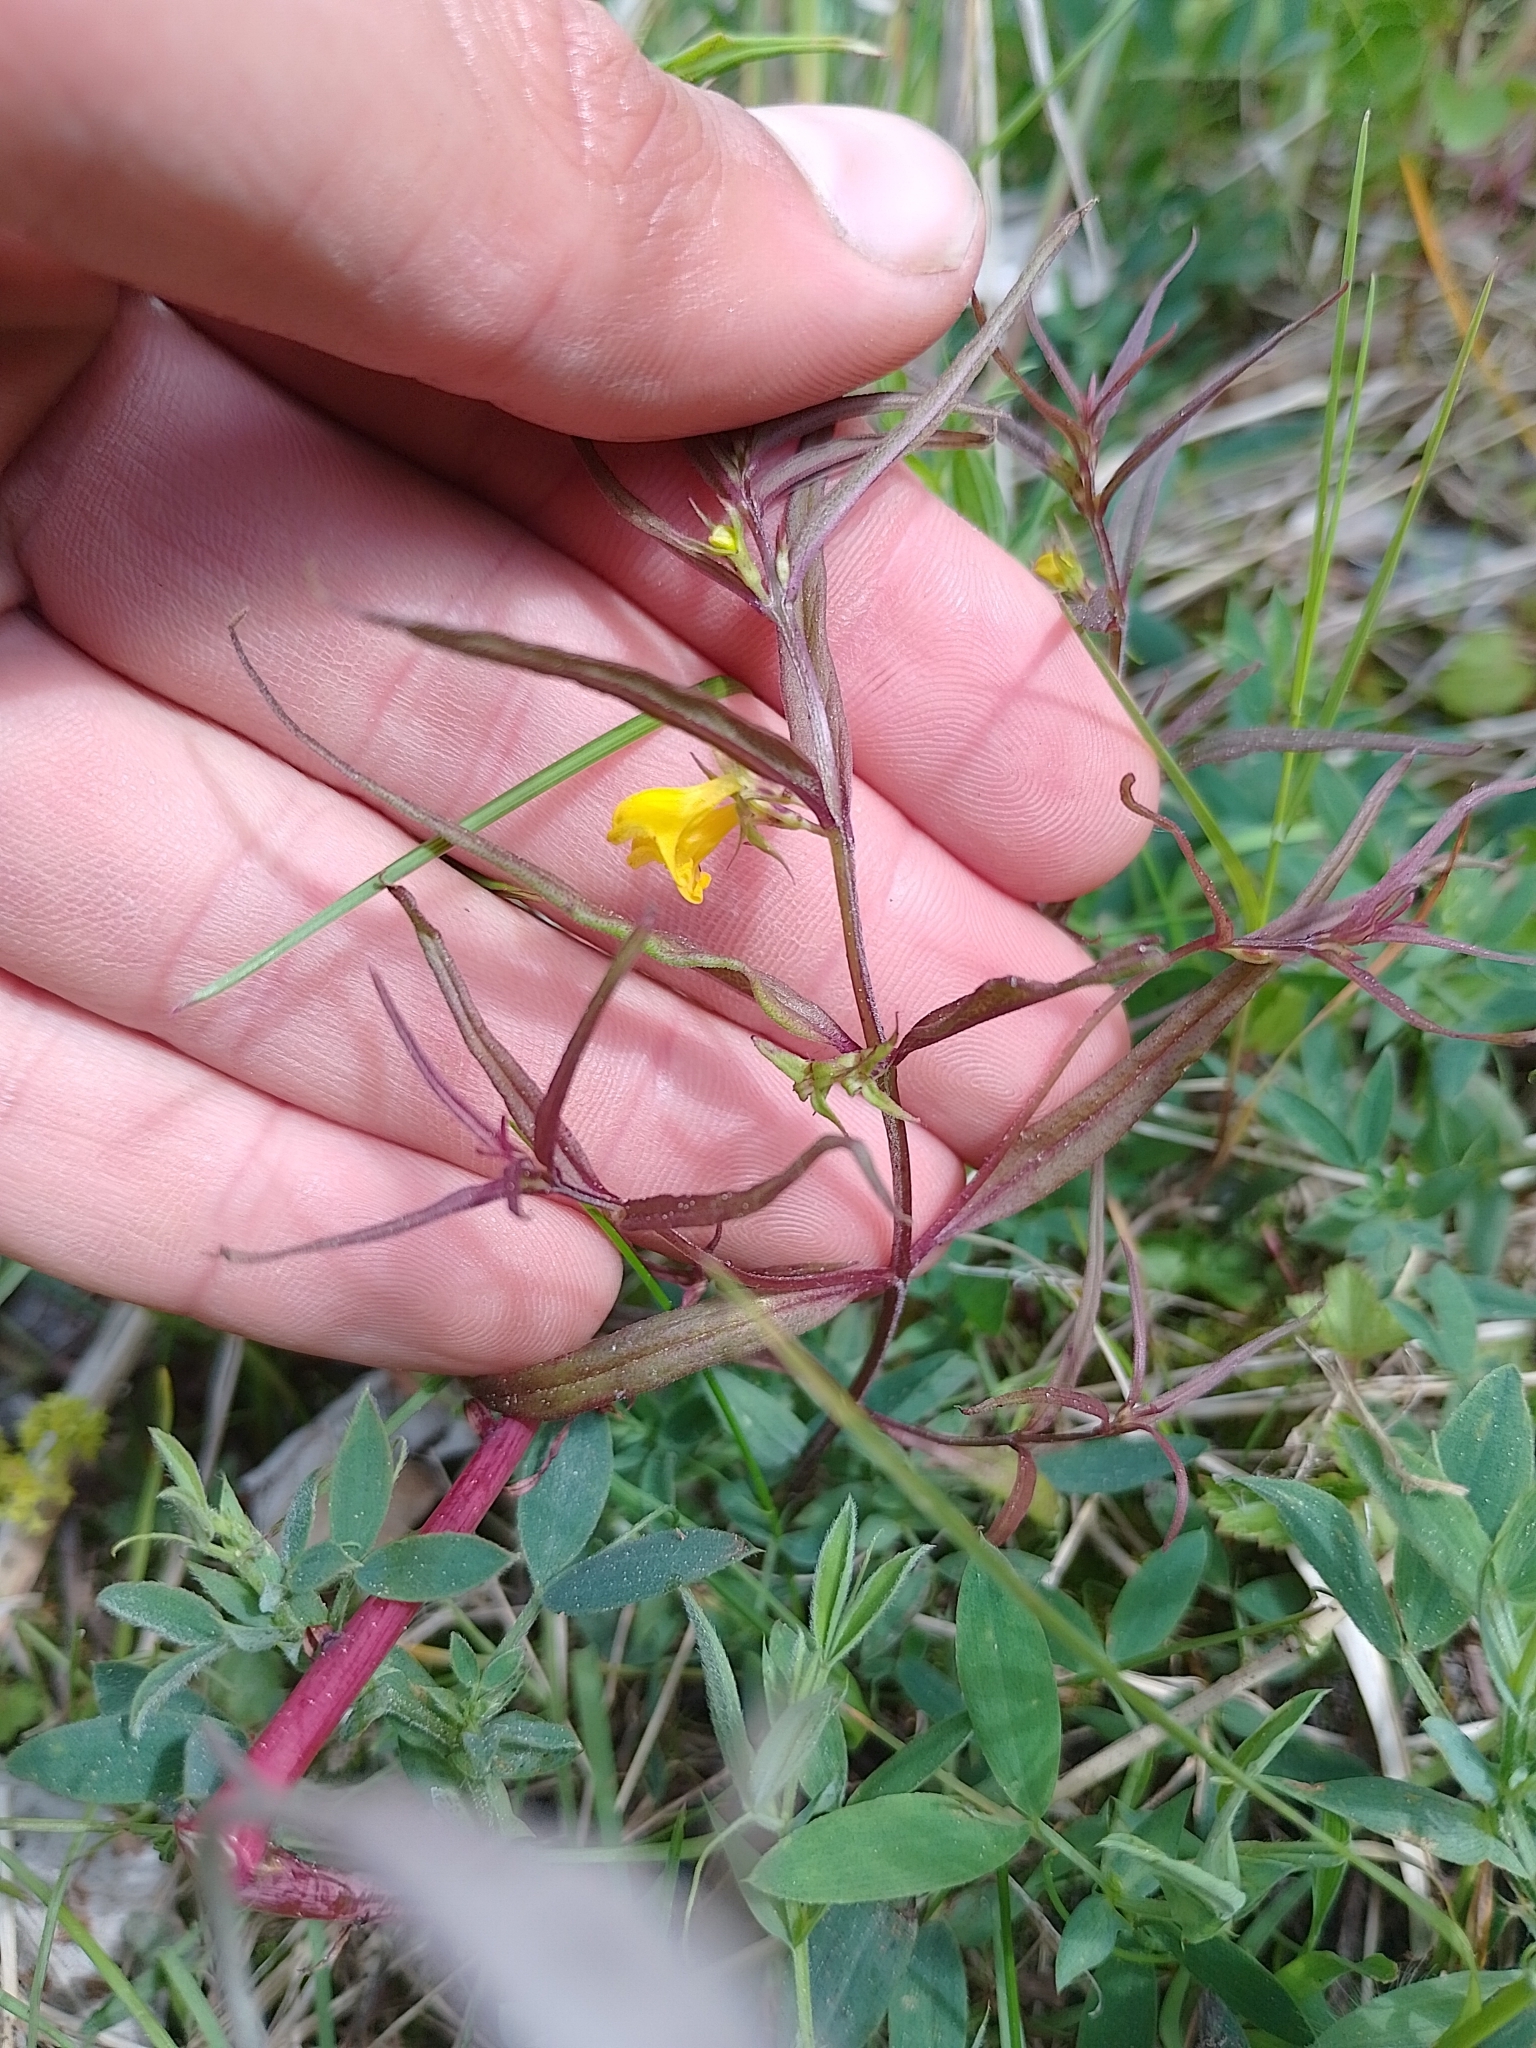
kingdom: Plantae
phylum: Tracheophyta
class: Magnoliopsida
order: Lamiales
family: Orobanchaceae
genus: Melampyrum
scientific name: Melampyrum sylvaticum
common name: Small cow-wheat
